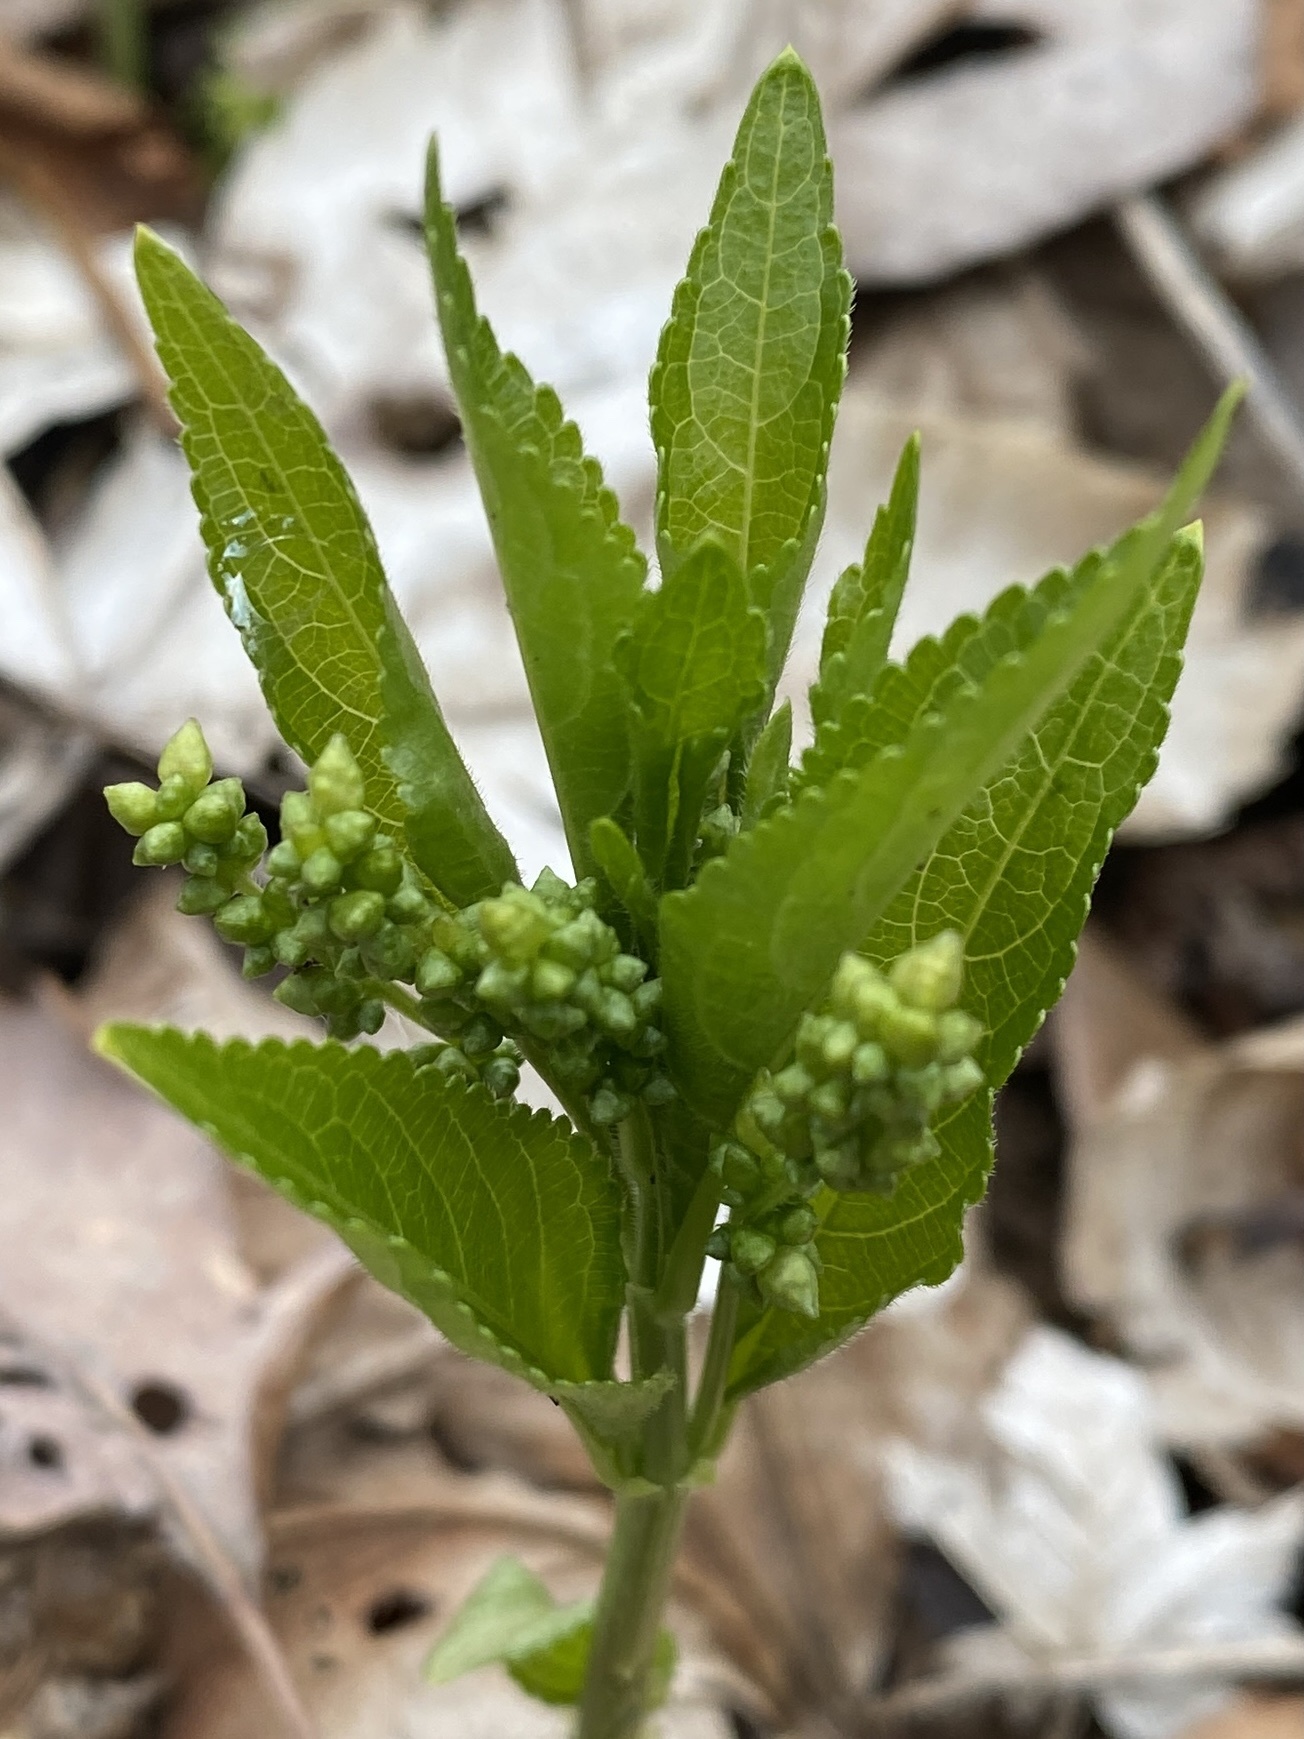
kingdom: Plantae
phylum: Tracheophyta
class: Magnoliopsida
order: Malpighiales
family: Euphorbiaceae
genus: Mercurialis
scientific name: Mercurialis perennis
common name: Dog mercury
